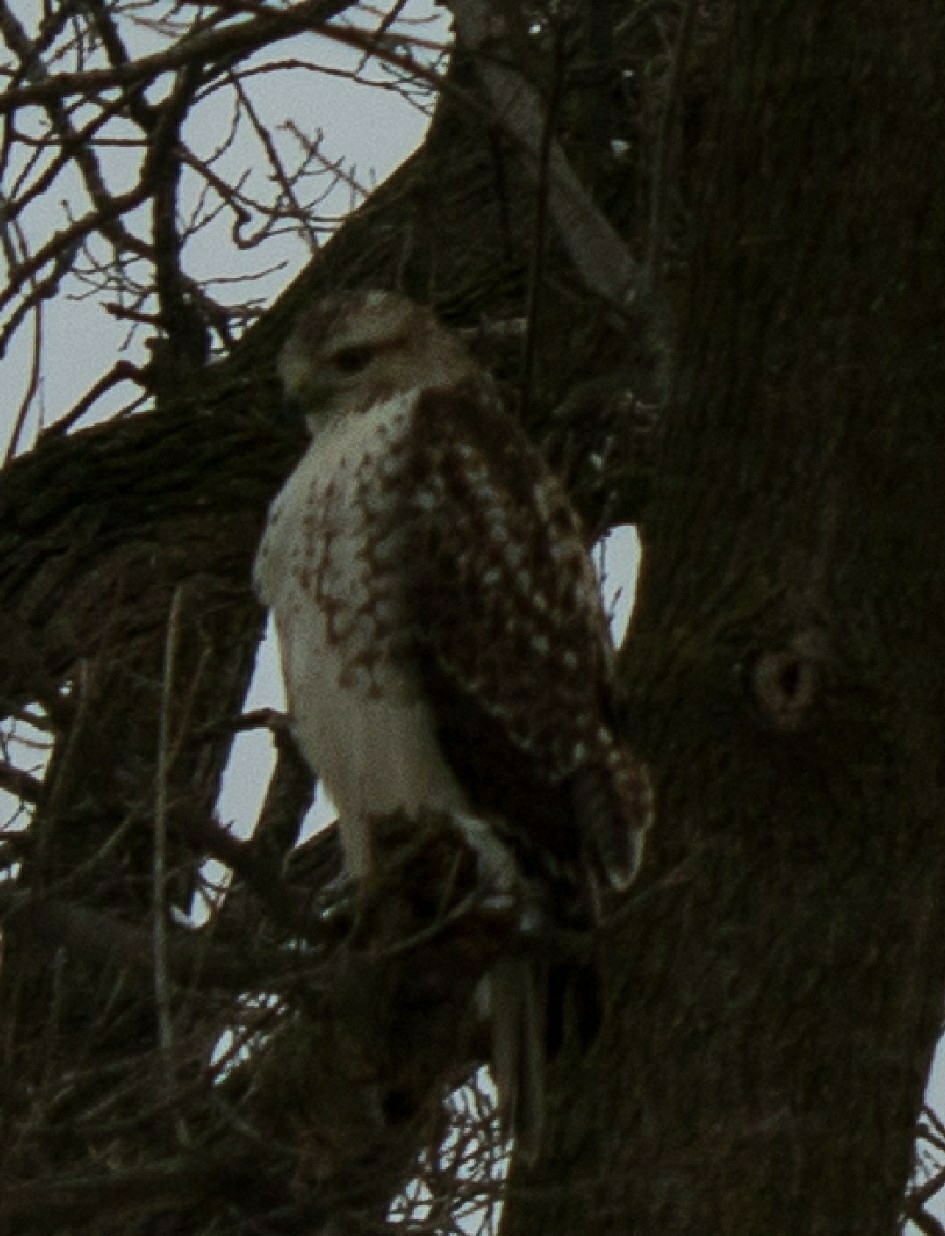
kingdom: Animalia
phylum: Chordata
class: Aves
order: Accipitriformes
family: Accipitridae
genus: Buteo
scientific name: Buteo jamaicensis
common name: Red-tailed hawk
